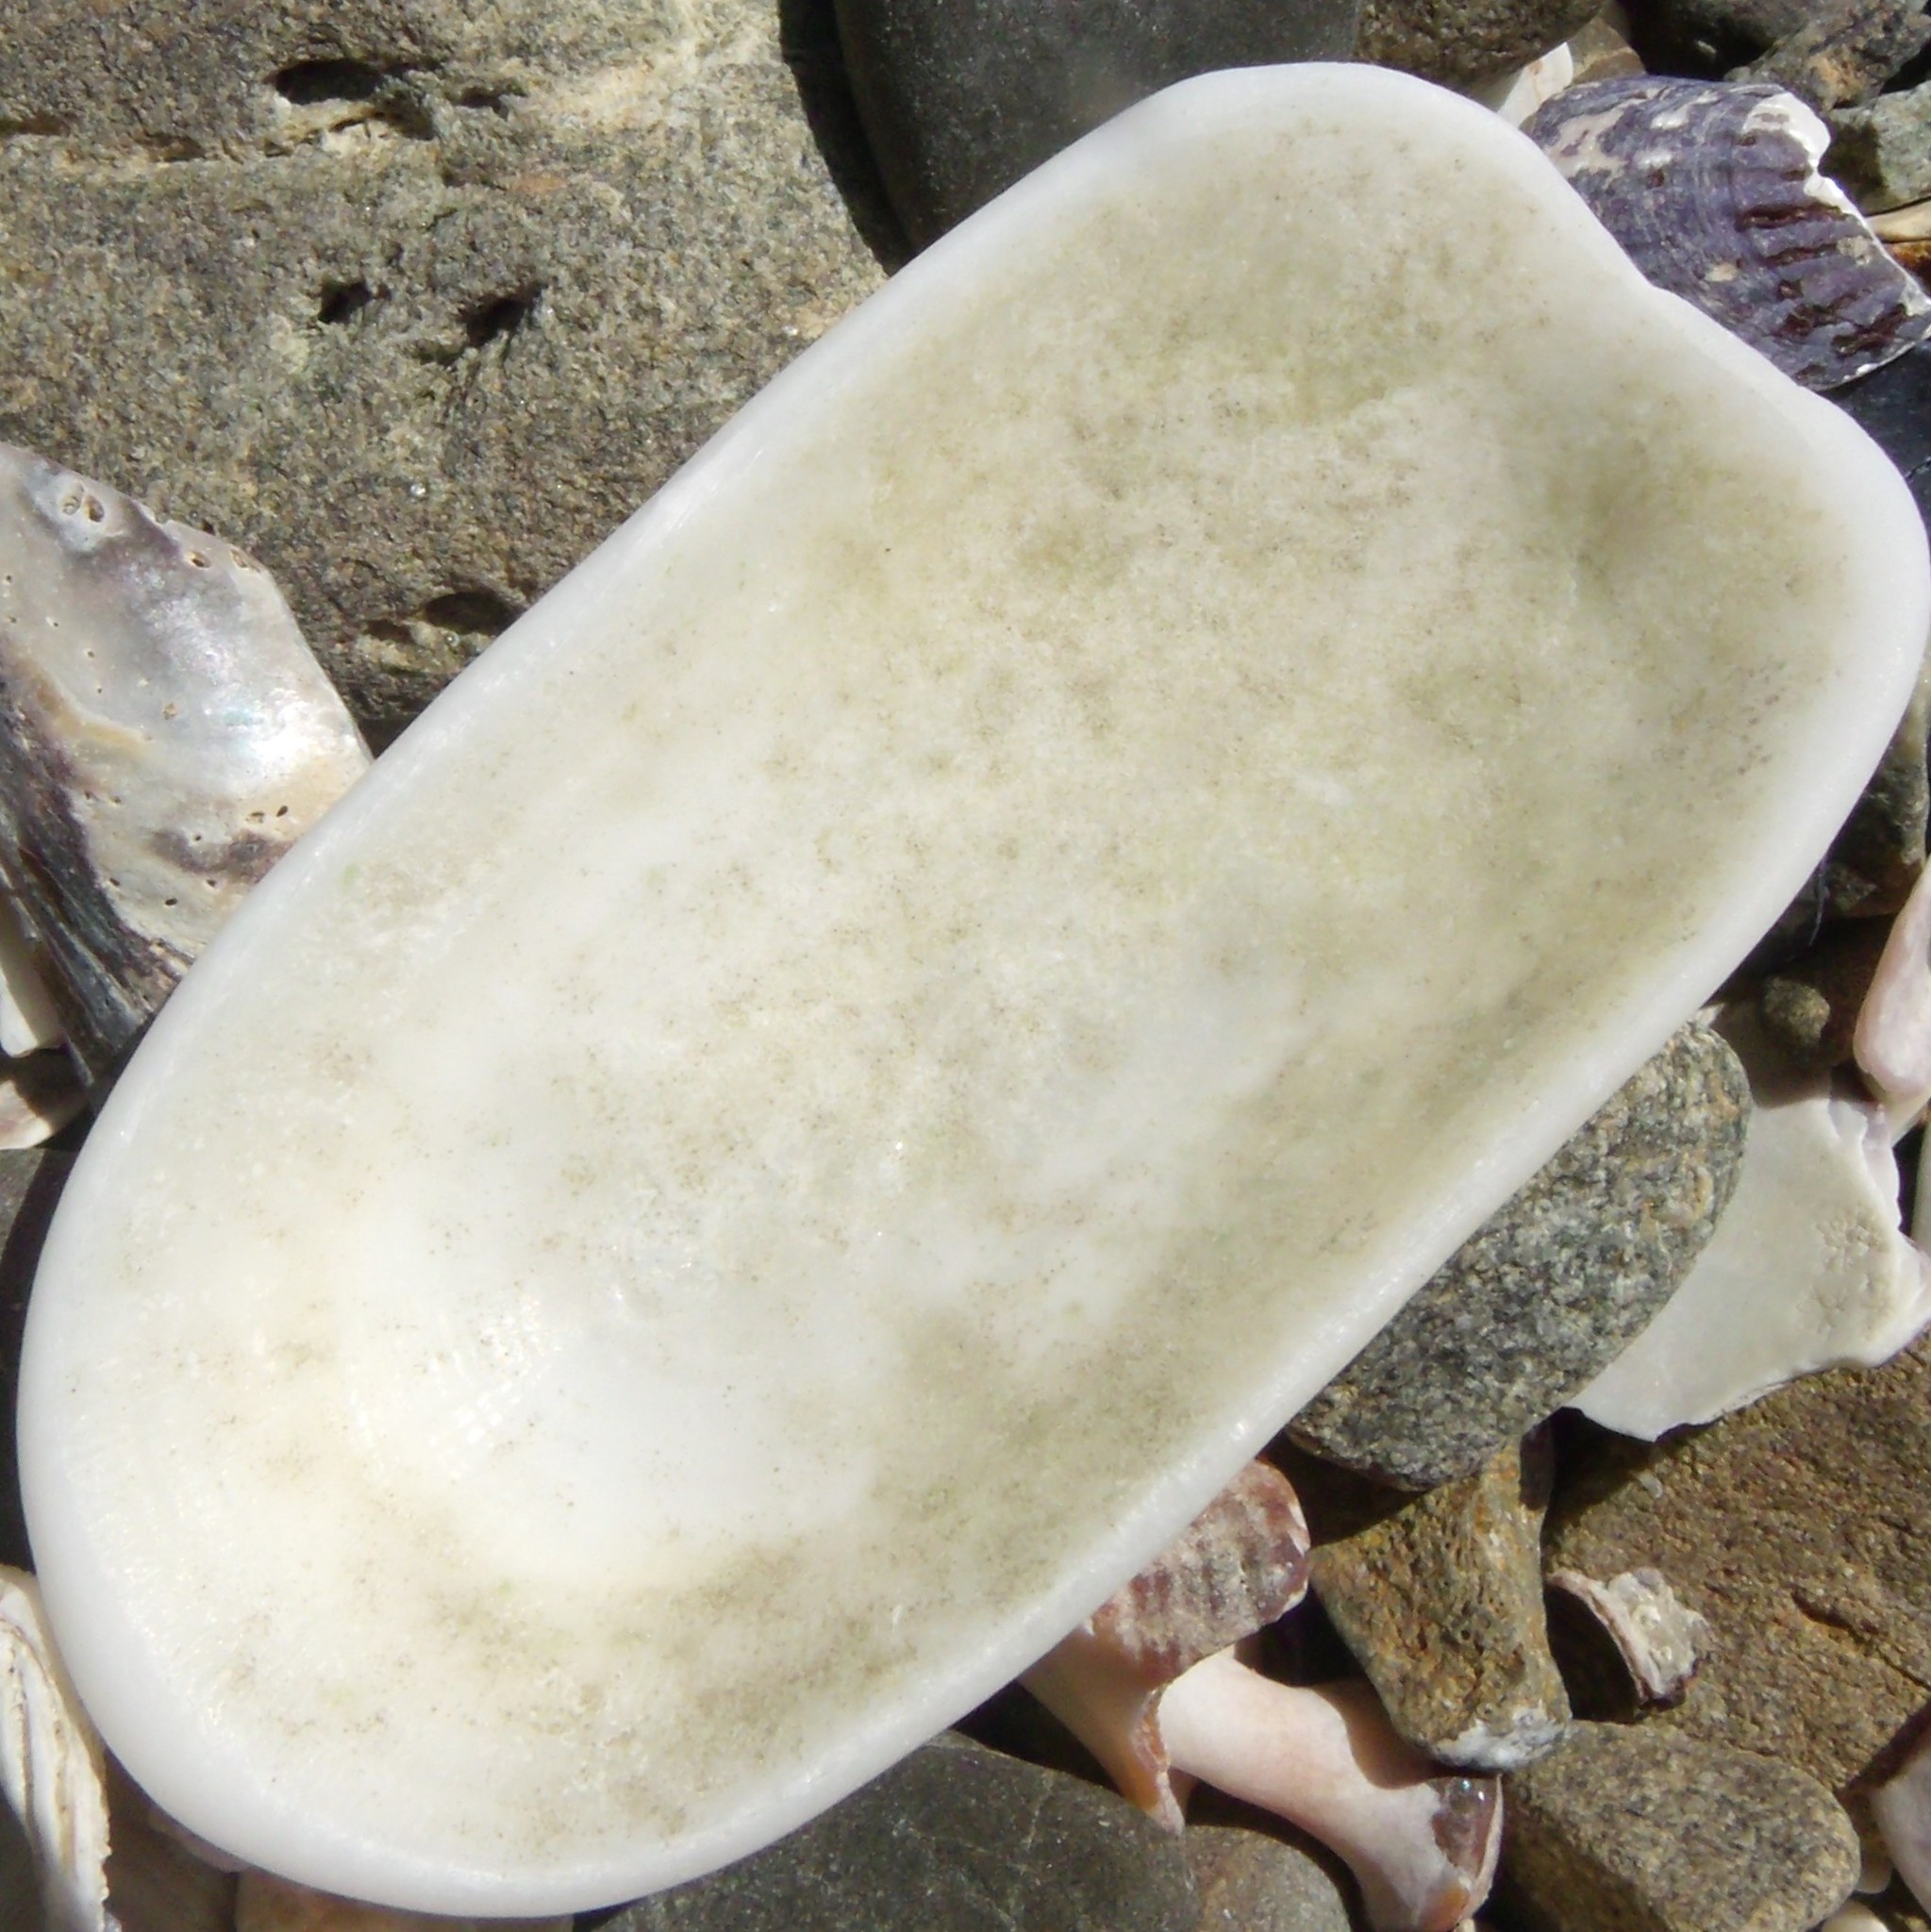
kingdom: Animalia
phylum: Mollusca
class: Gastropoda
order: Lepetellida
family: Fissurellidae
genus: Scutus
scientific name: Scutus breviculus
